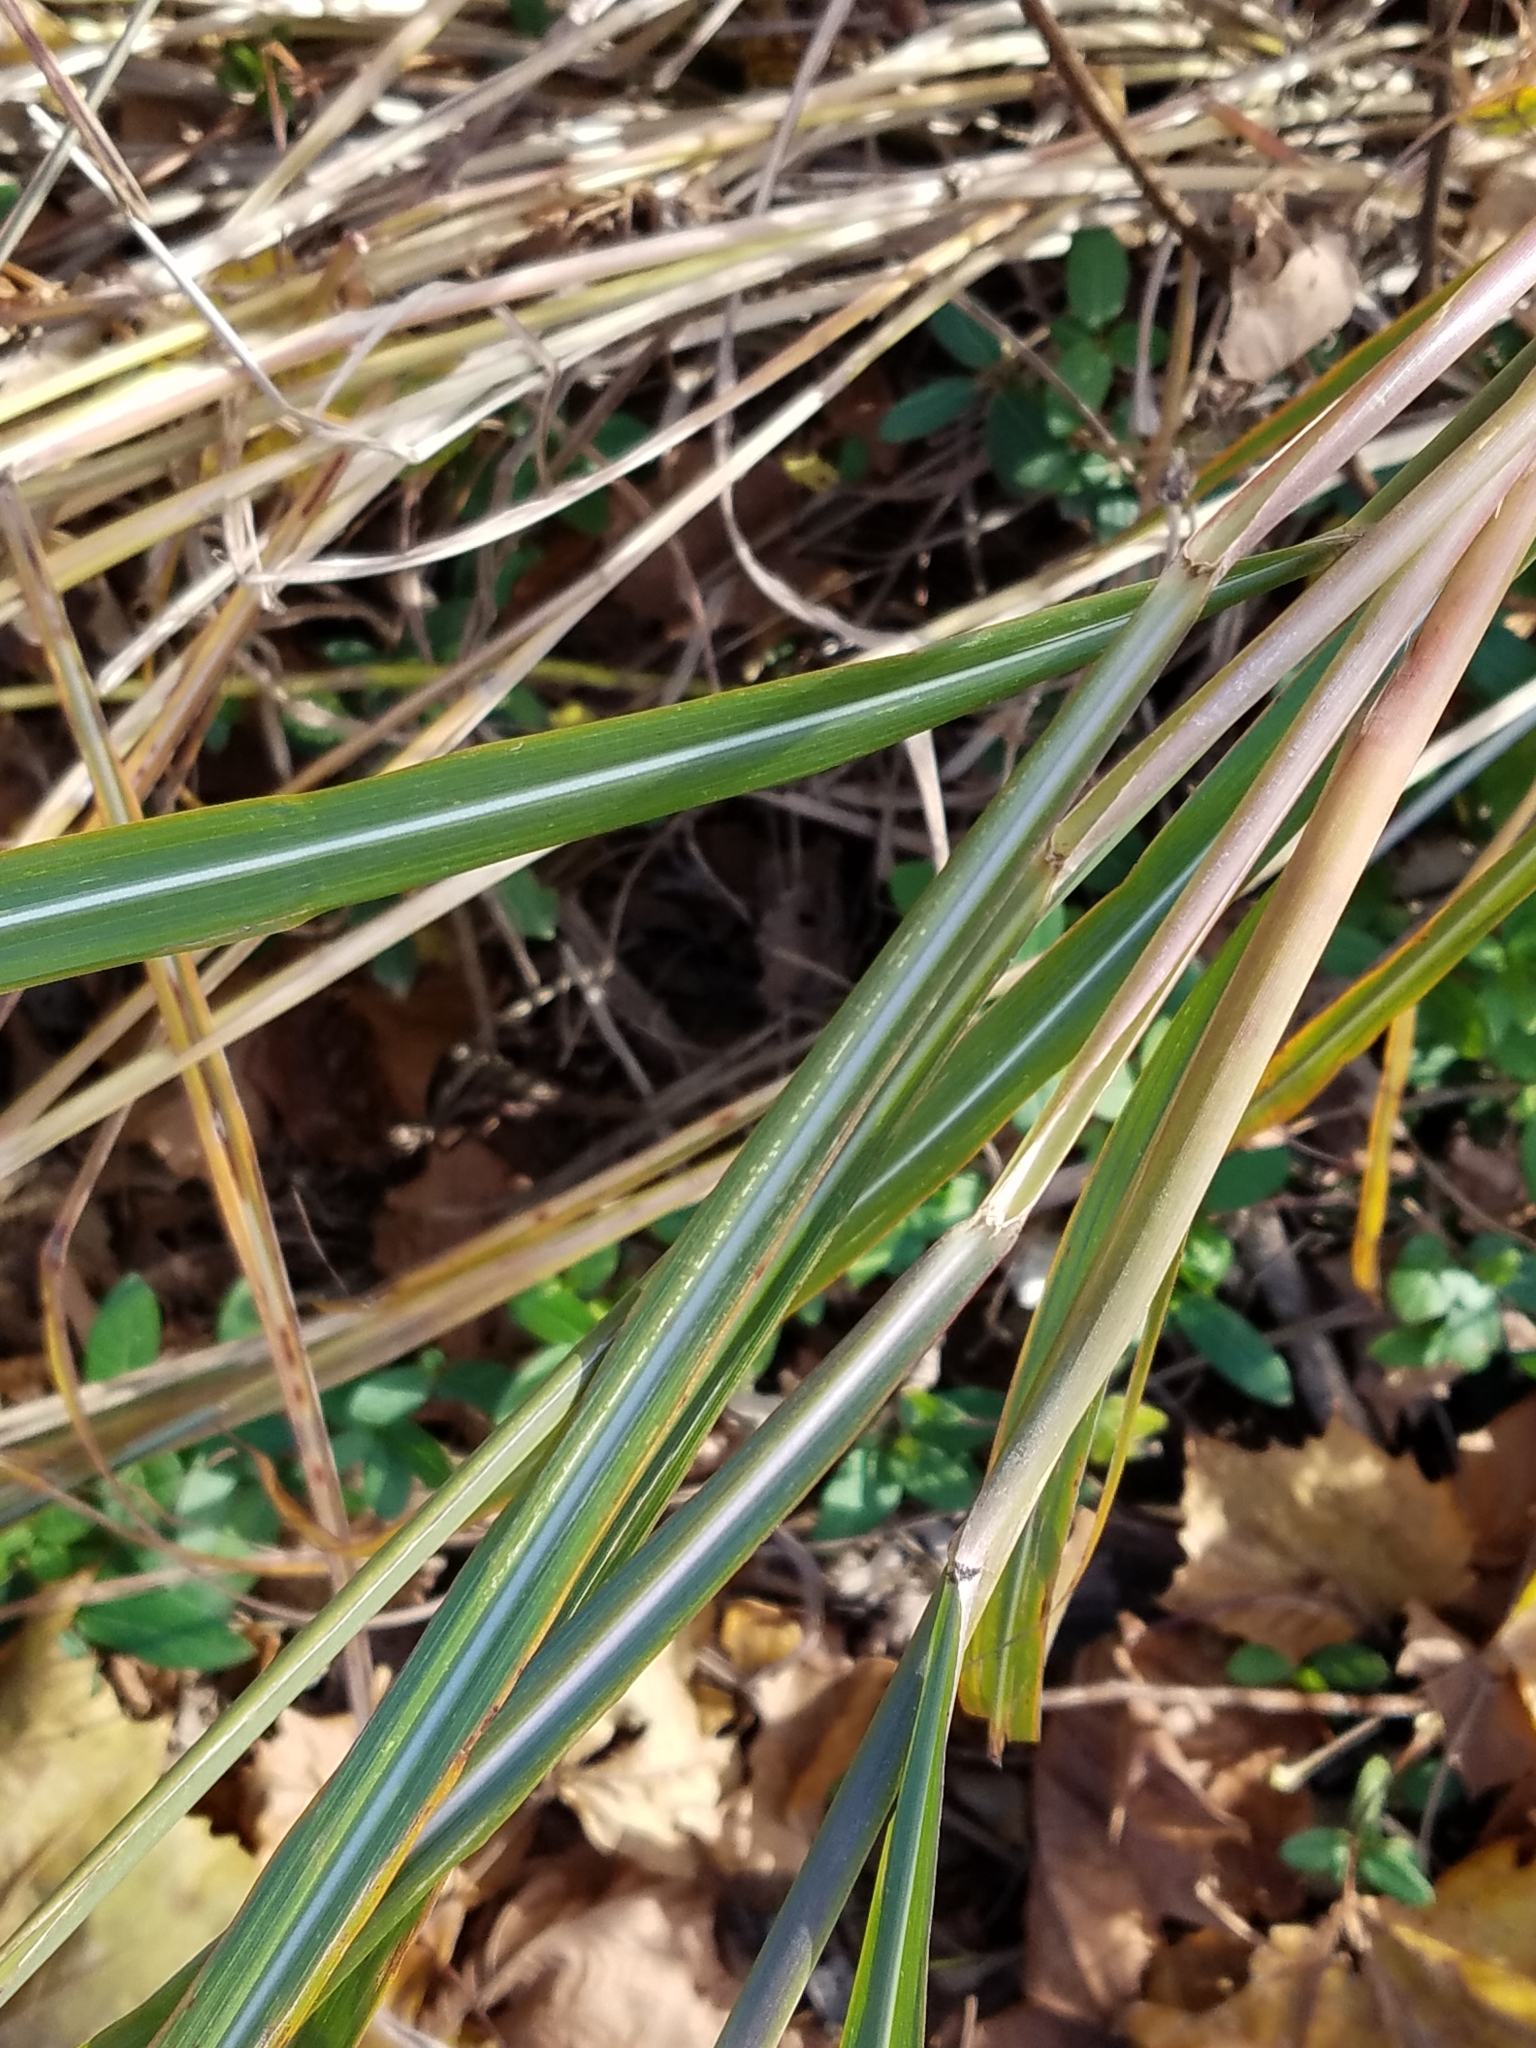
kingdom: Plantae
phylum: Tracheophyta
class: Liliopsida
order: Poales
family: Poaceae
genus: Miscanthus
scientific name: Miscanthus sinensis
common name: Chinese silvergrass
